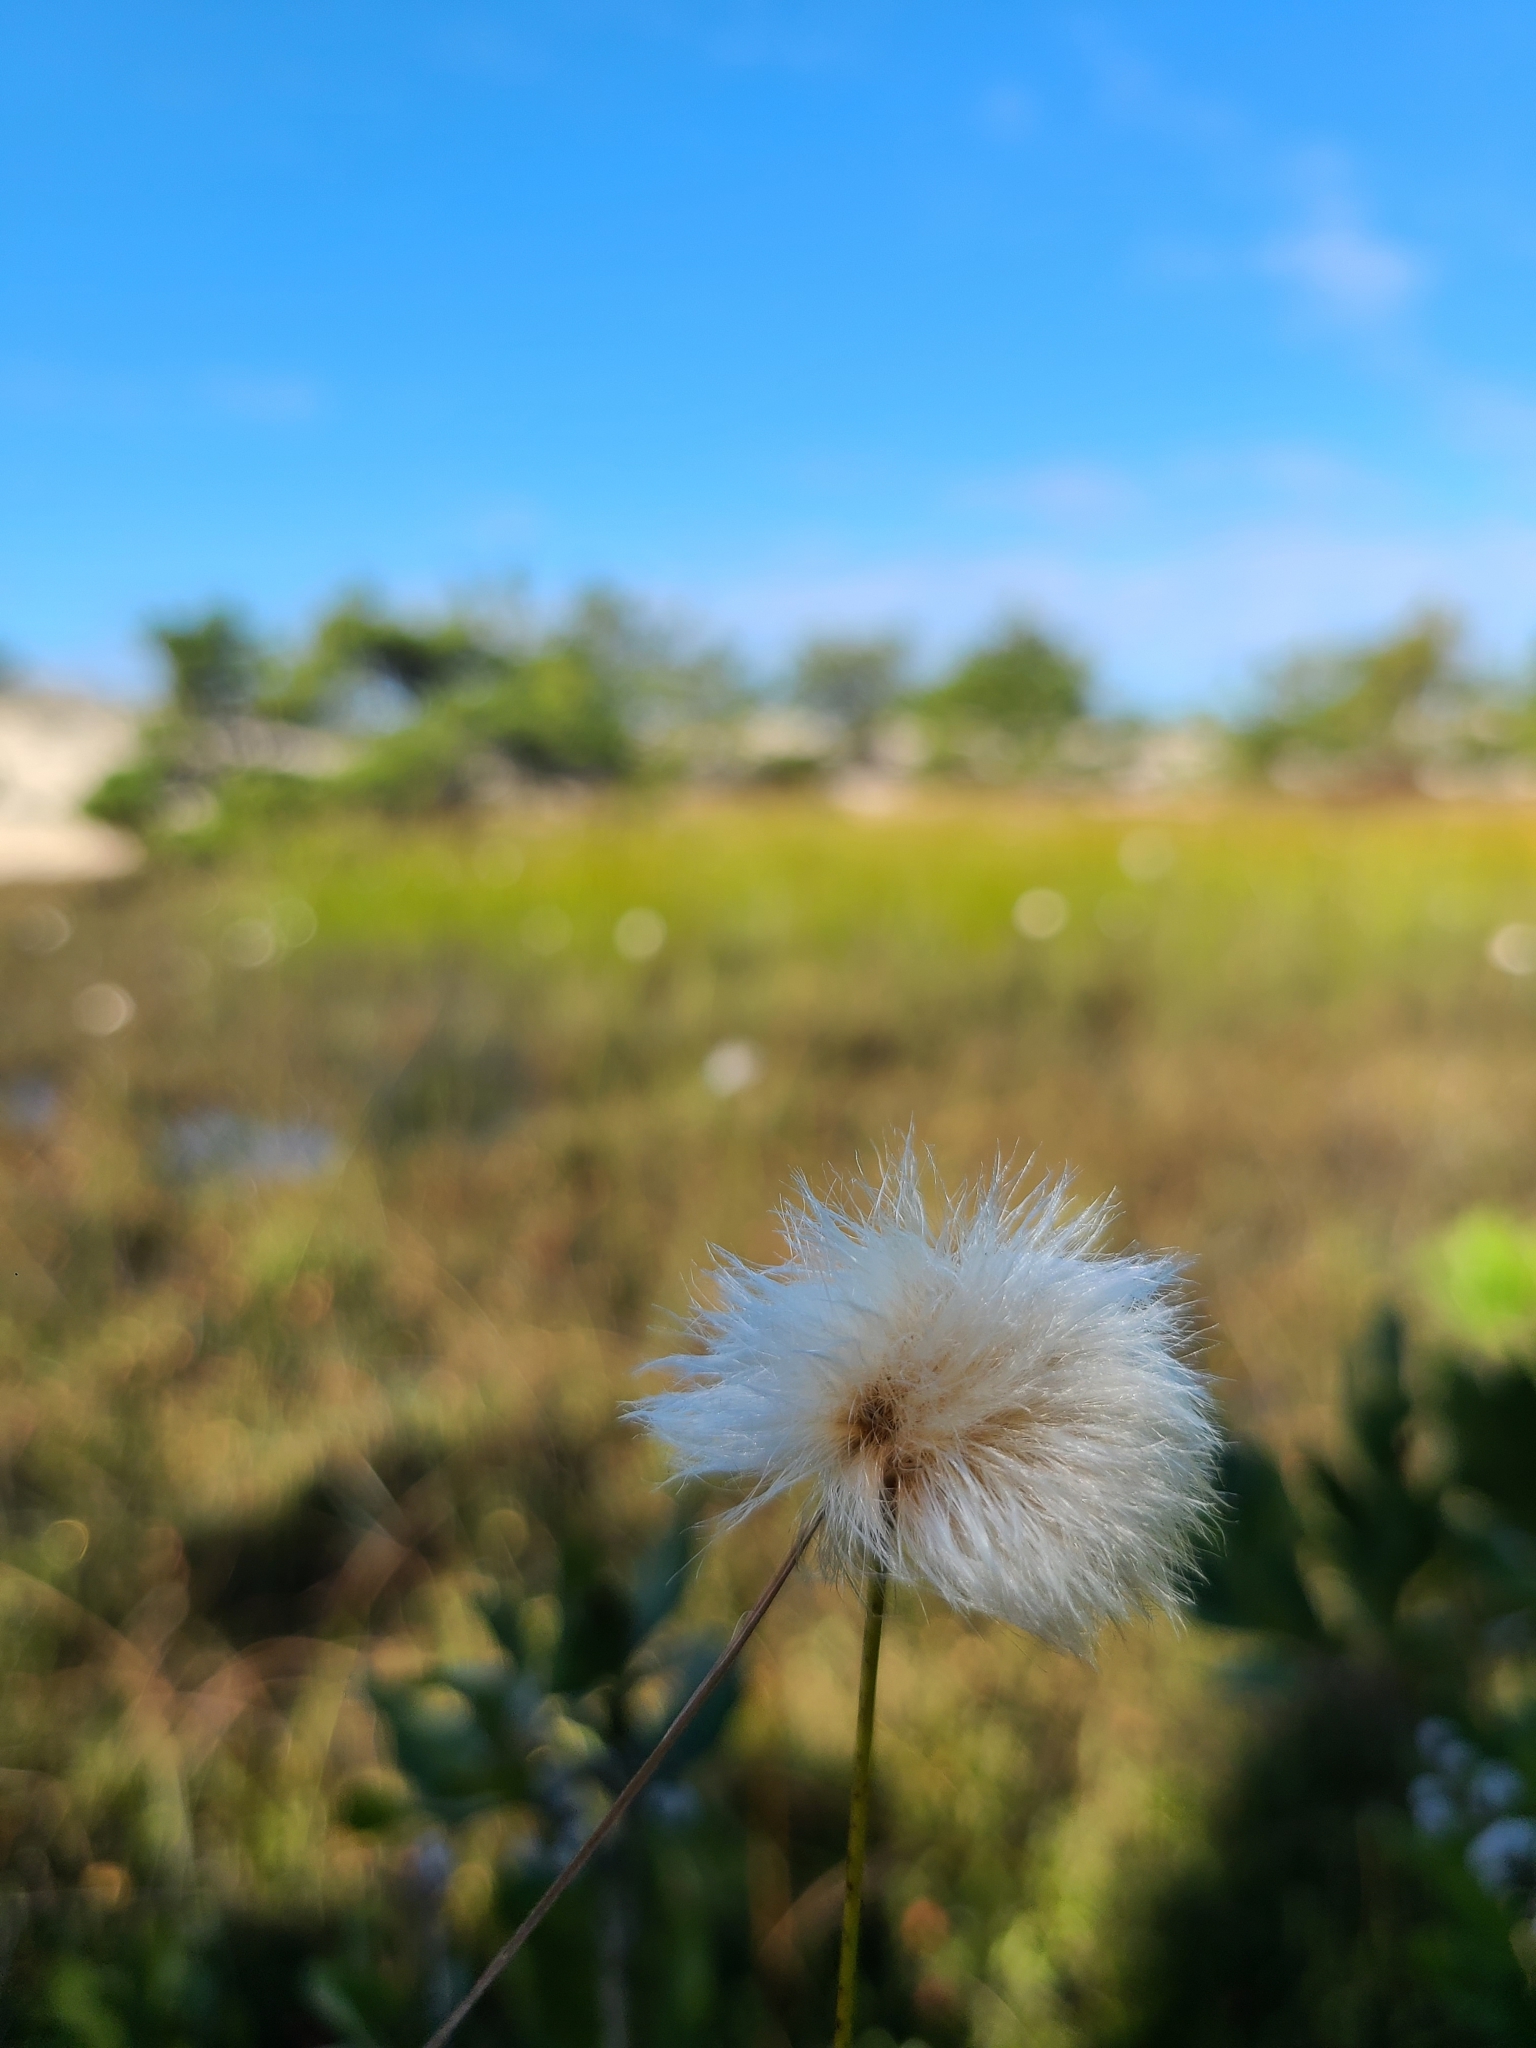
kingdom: Plantae
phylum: Tracheophyta
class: Liliopsida
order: Poales
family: Cyperaceae
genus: Eriophorum
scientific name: Eriophorum virginicum
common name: Tawny cottongrass
